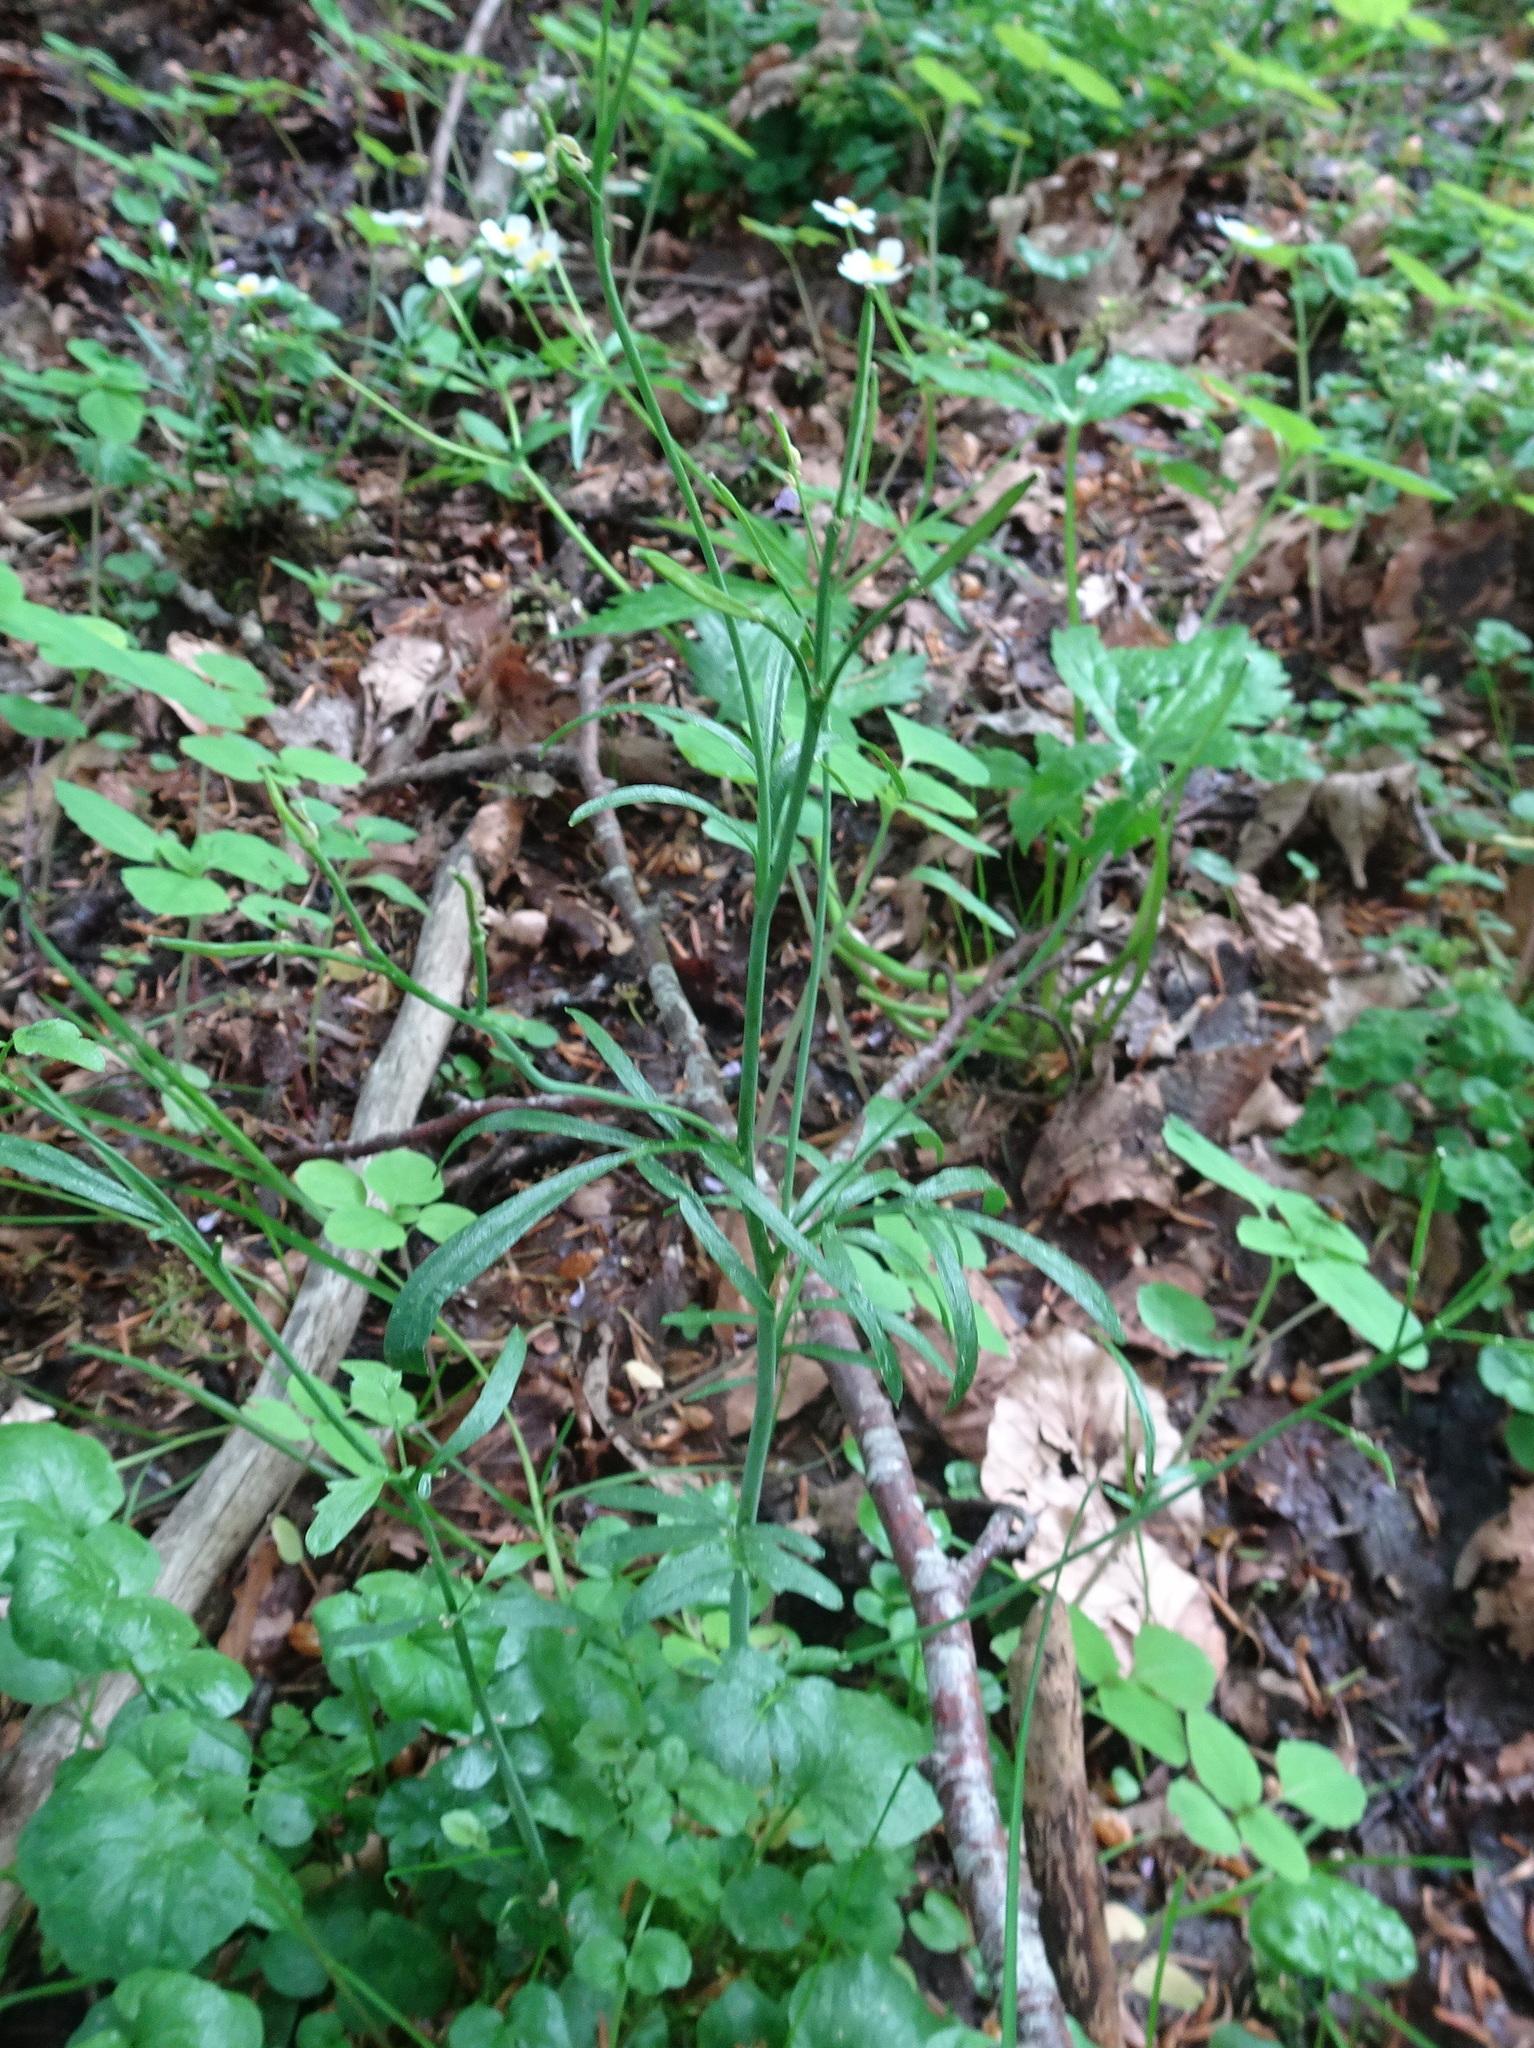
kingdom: Plantae
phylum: Tracheophyta
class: Magnoliopsida
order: Brassicales
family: Brassicaceae
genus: Cardamine
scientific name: Cardamine pratensis
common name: Cuckoo flower
